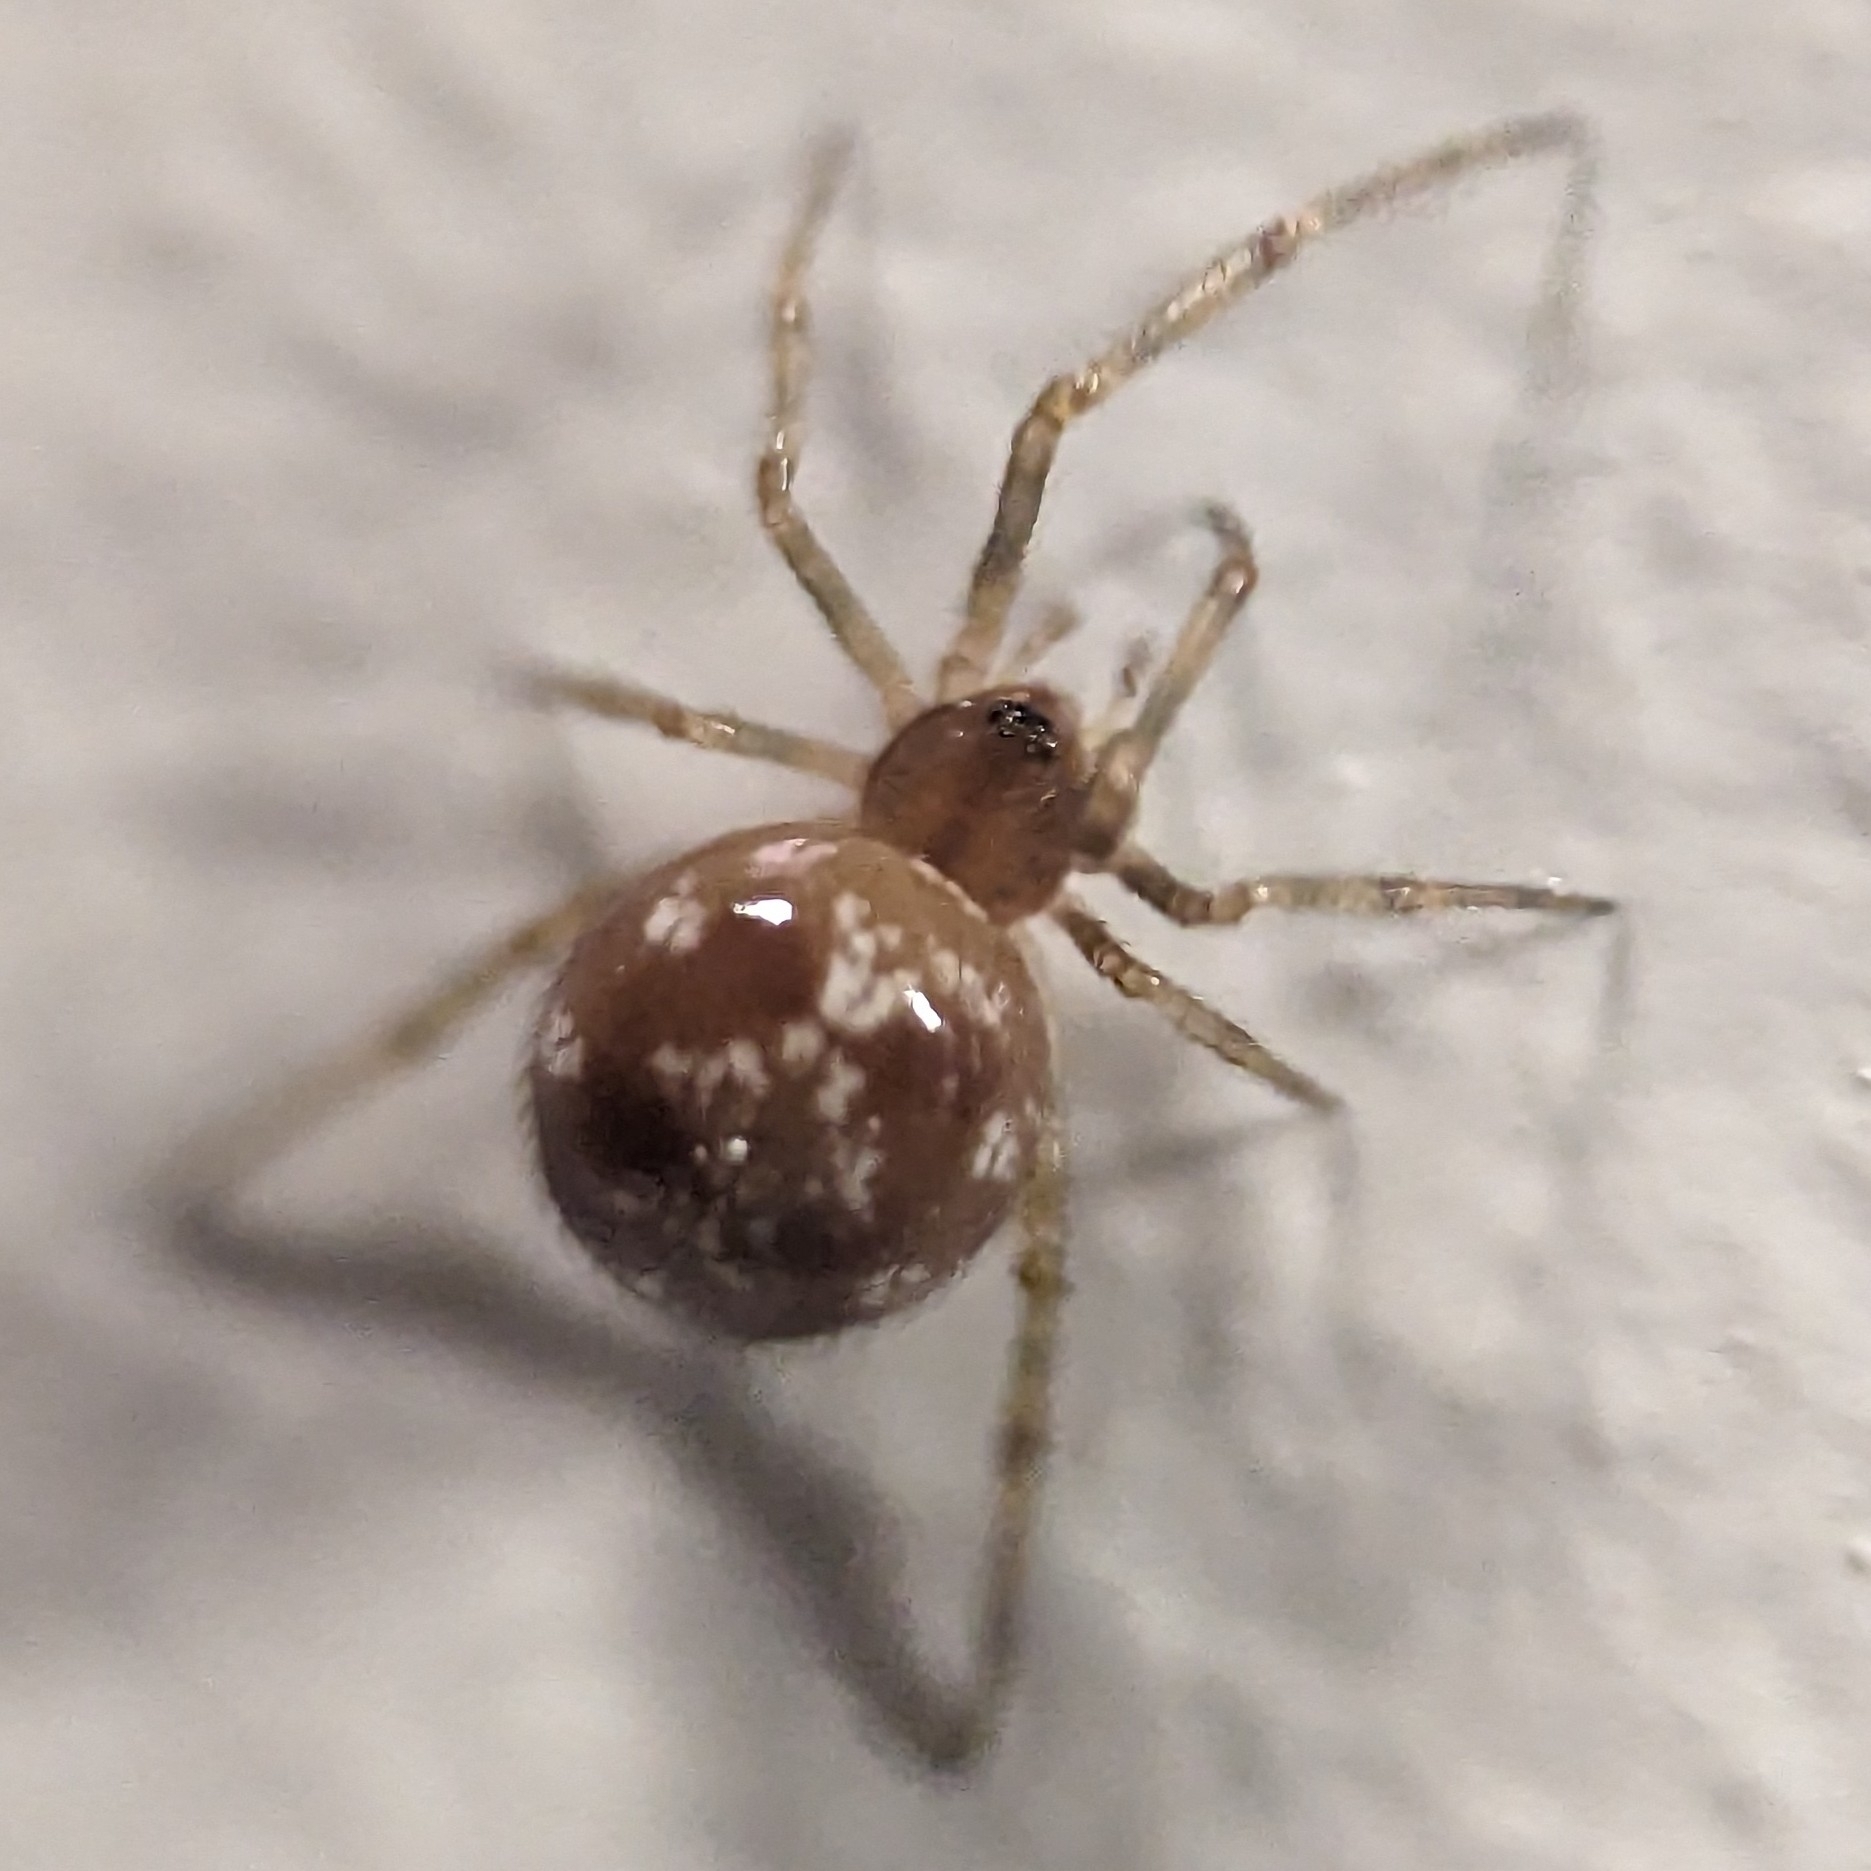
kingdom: Animalia
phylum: Arthropoda
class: Arachnida
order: Araneae
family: Theridiidae
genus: Steatoda
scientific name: Steatoda triangulosa
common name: Triangulate bud spider
